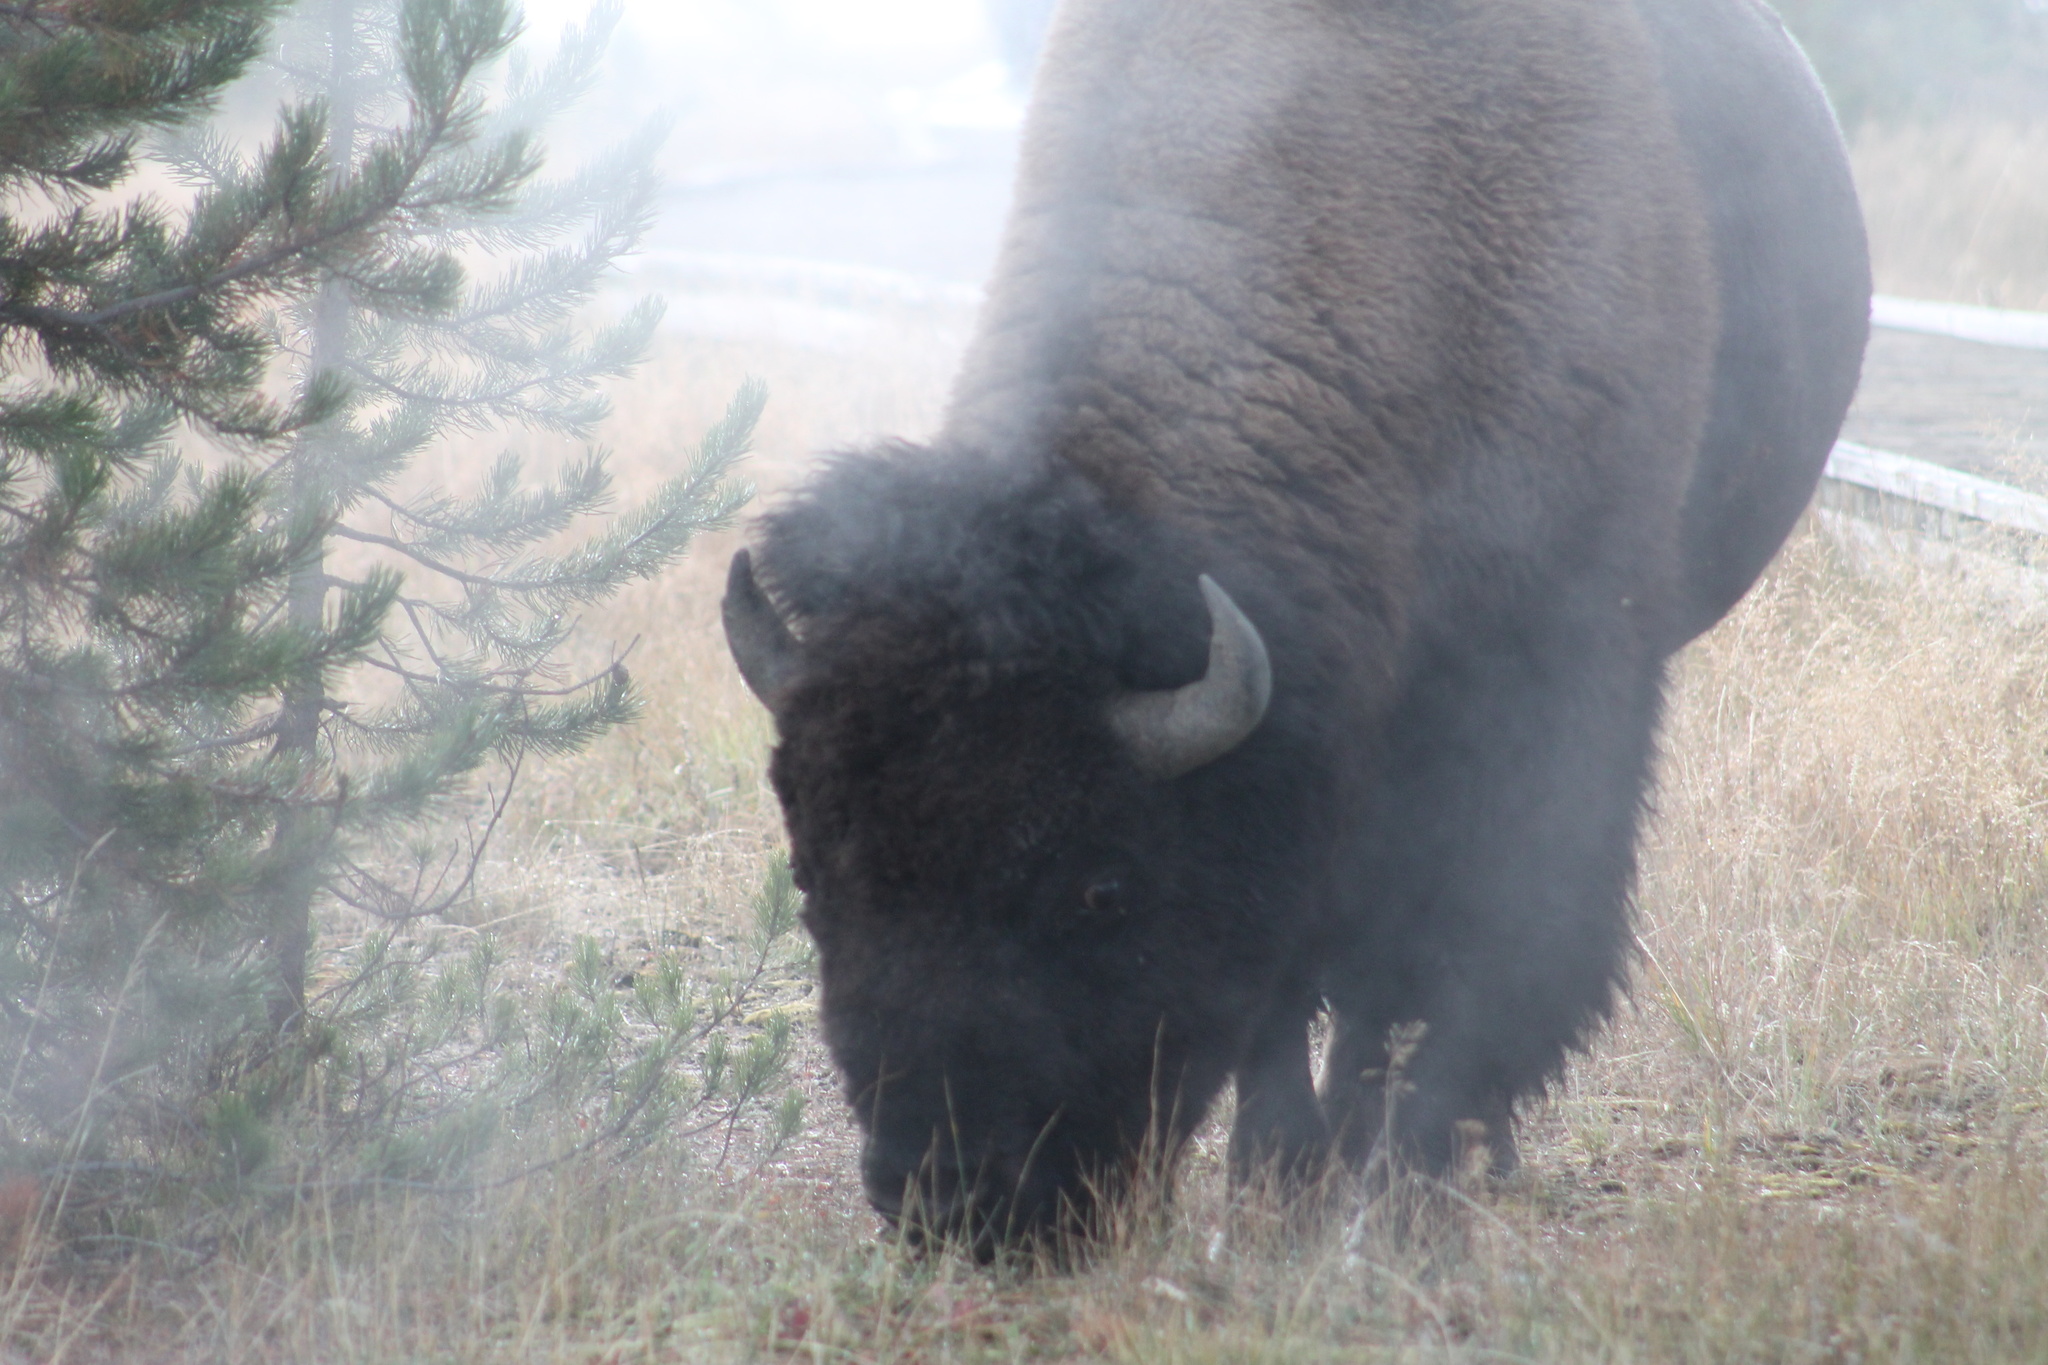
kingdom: Animalia
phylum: Chordata
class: Mammalia
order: Artiodactyla
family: Bovidae
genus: Bison
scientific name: Bison bison
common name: American bison
